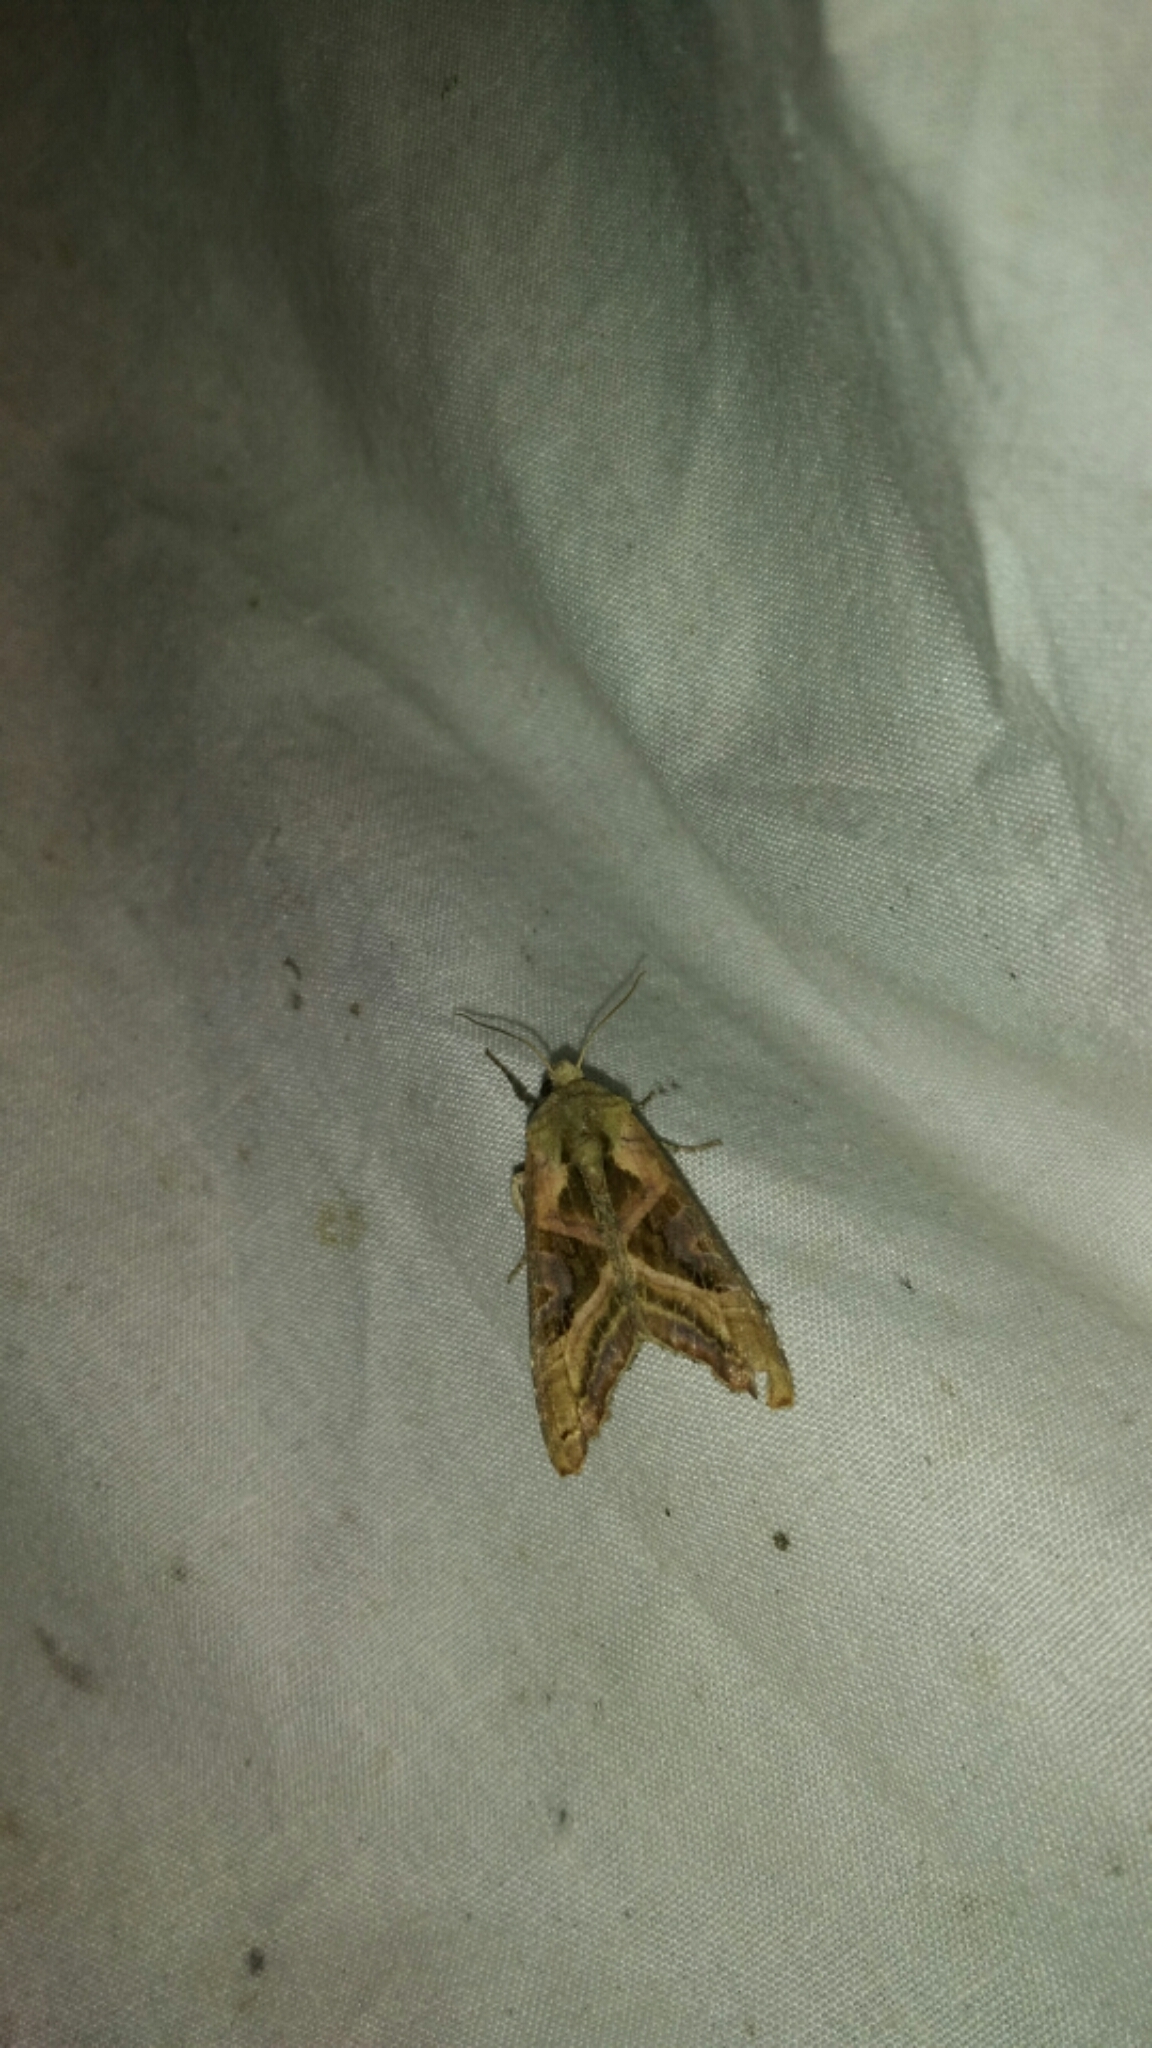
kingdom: Animalia
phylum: Arthropoda
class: Insecta
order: Lepidoptera
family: Noctuidae
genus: Phlogophora
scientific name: Phlogophora iris
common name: Olive angle shades
